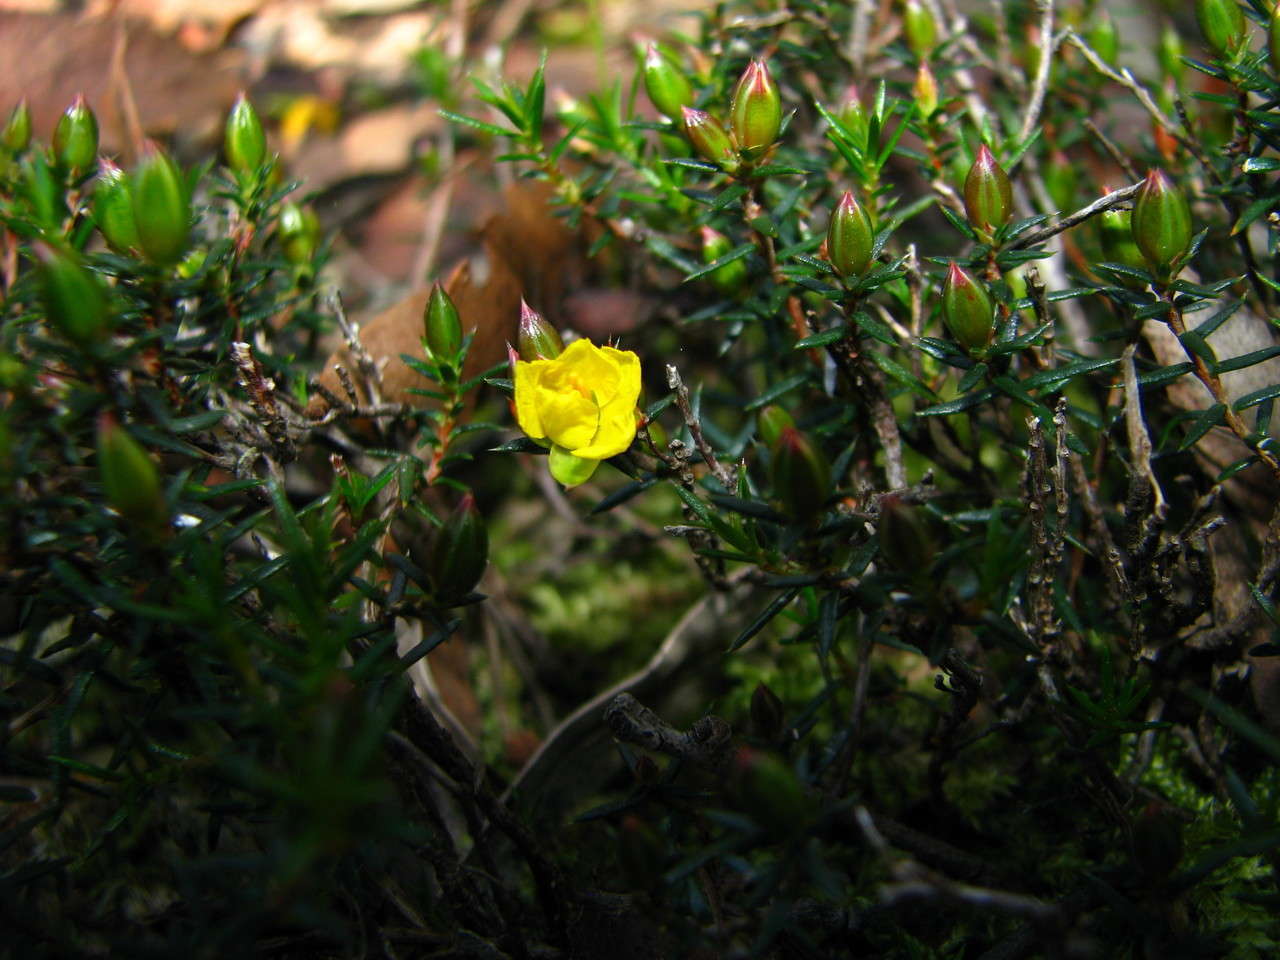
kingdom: Plantae
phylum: Tracheophyta
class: Magnoliopsida
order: Dilleniales
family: Dilleniaceae
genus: Hibbertia
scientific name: Hibbertia exutiacies
